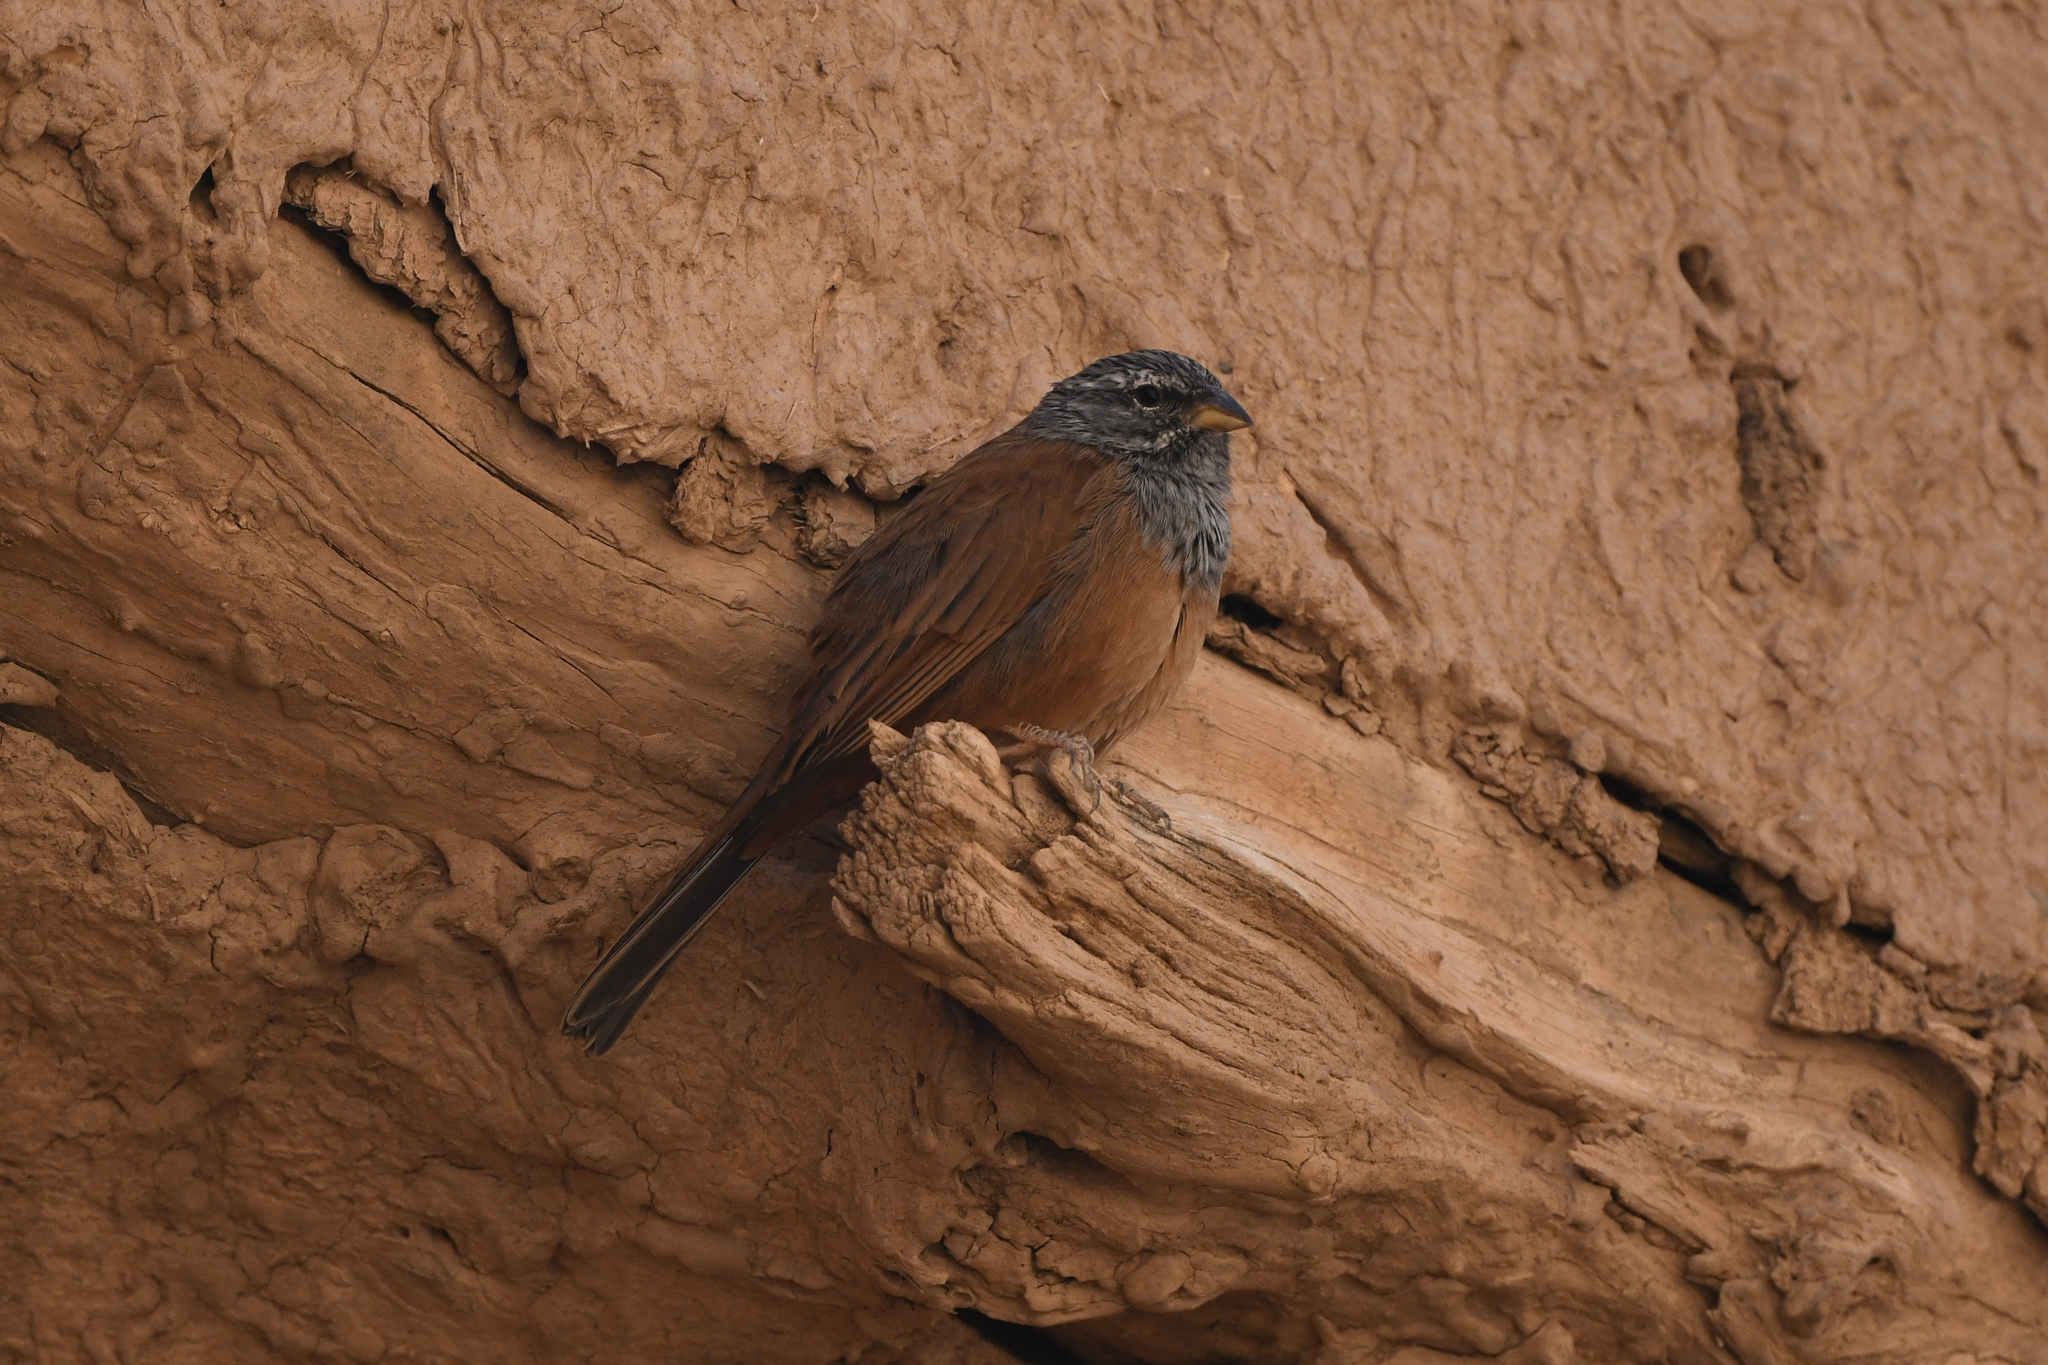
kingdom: Animalia
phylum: Chordata
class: Aves
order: Passeriformes
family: Emberizidae
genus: Emberiza
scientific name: Emberiza sahari
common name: House bunting
